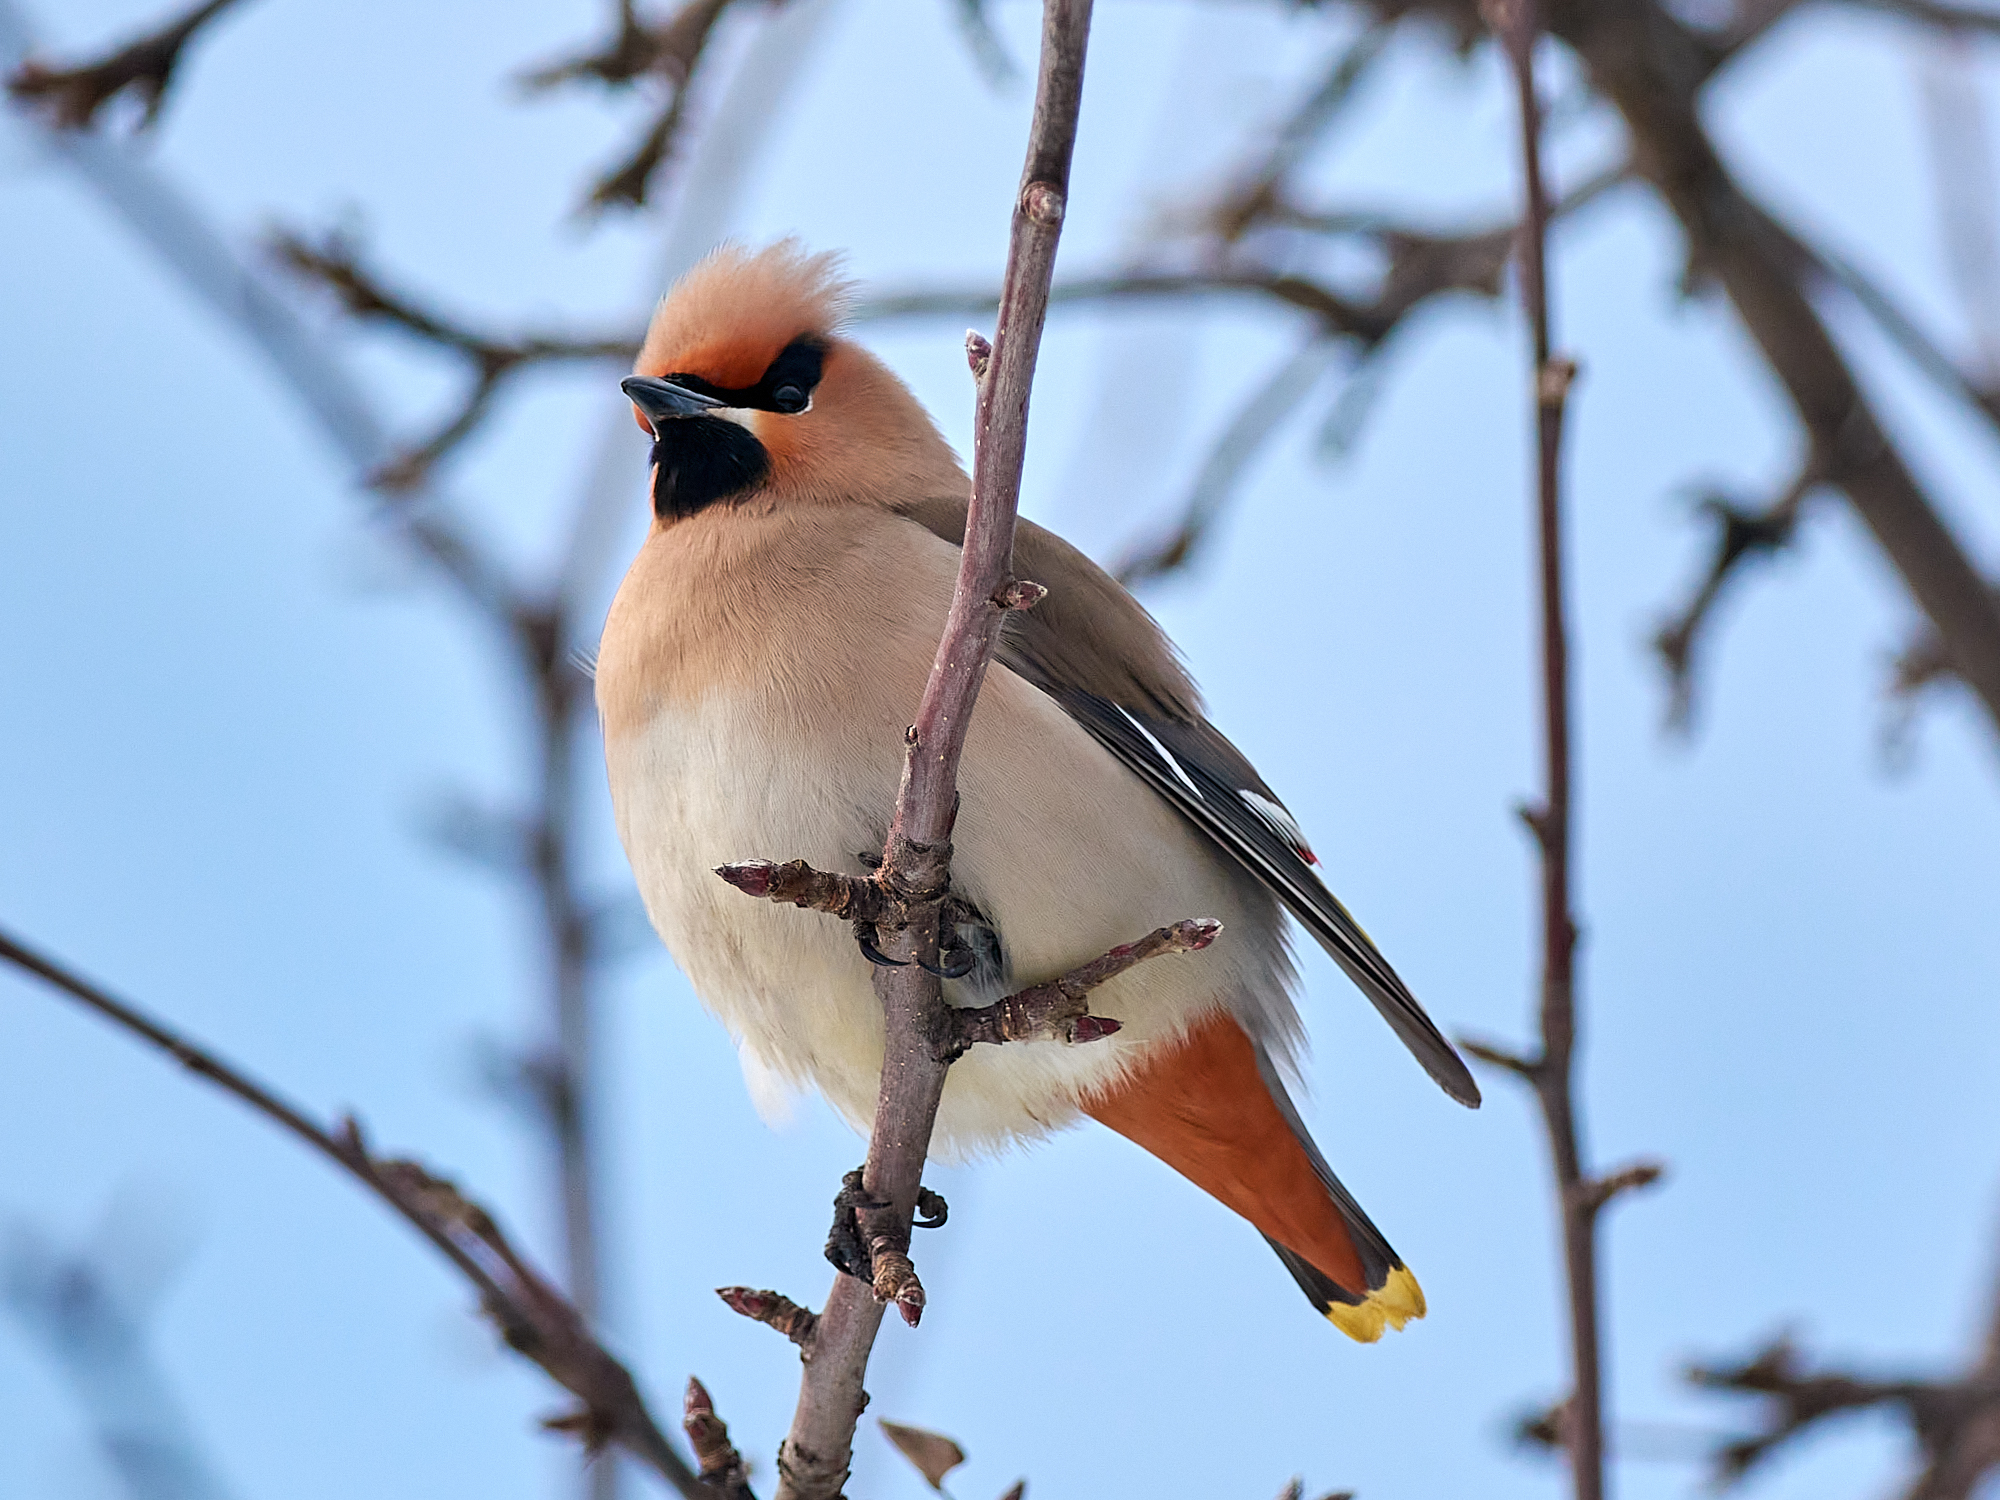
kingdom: Animalia
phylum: Chordata
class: Aves
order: Passeriformes
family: Bombycillidae
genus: Bombycilla
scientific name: Bombycilla garrulus
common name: Bohemian waxwing
